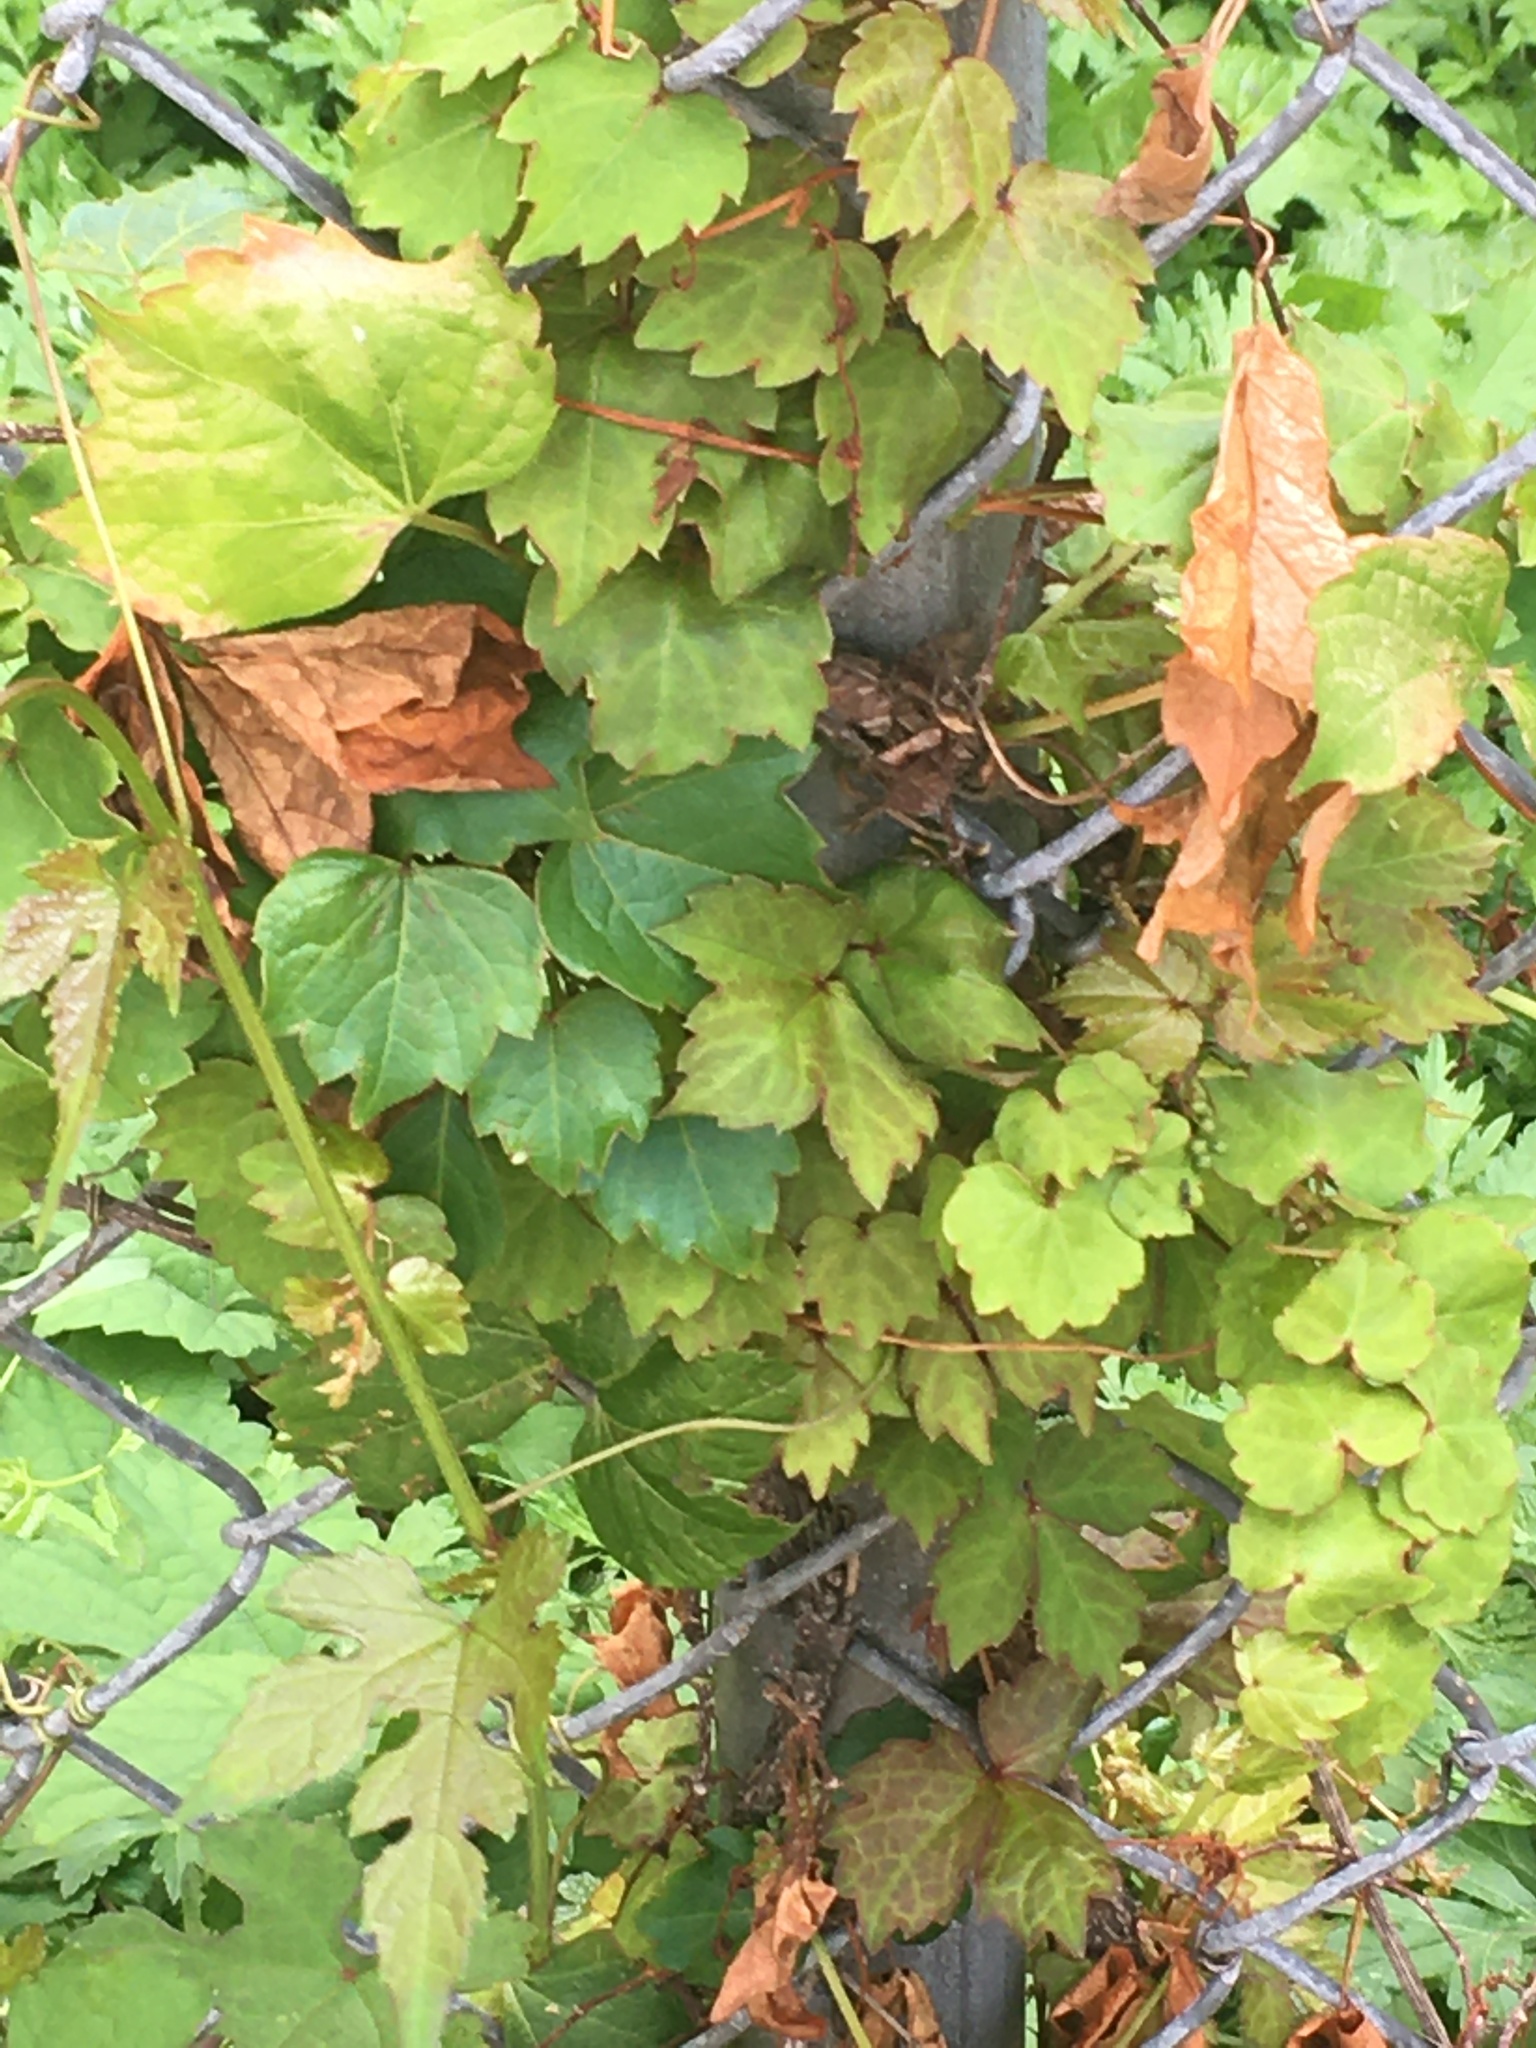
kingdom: Plantae
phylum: Tracheophyta
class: Magnoliopsida
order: Vitales
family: Vitaceae
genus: Parthenocissus
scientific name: Parthenocissus tricuspidata
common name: Boston ivy
